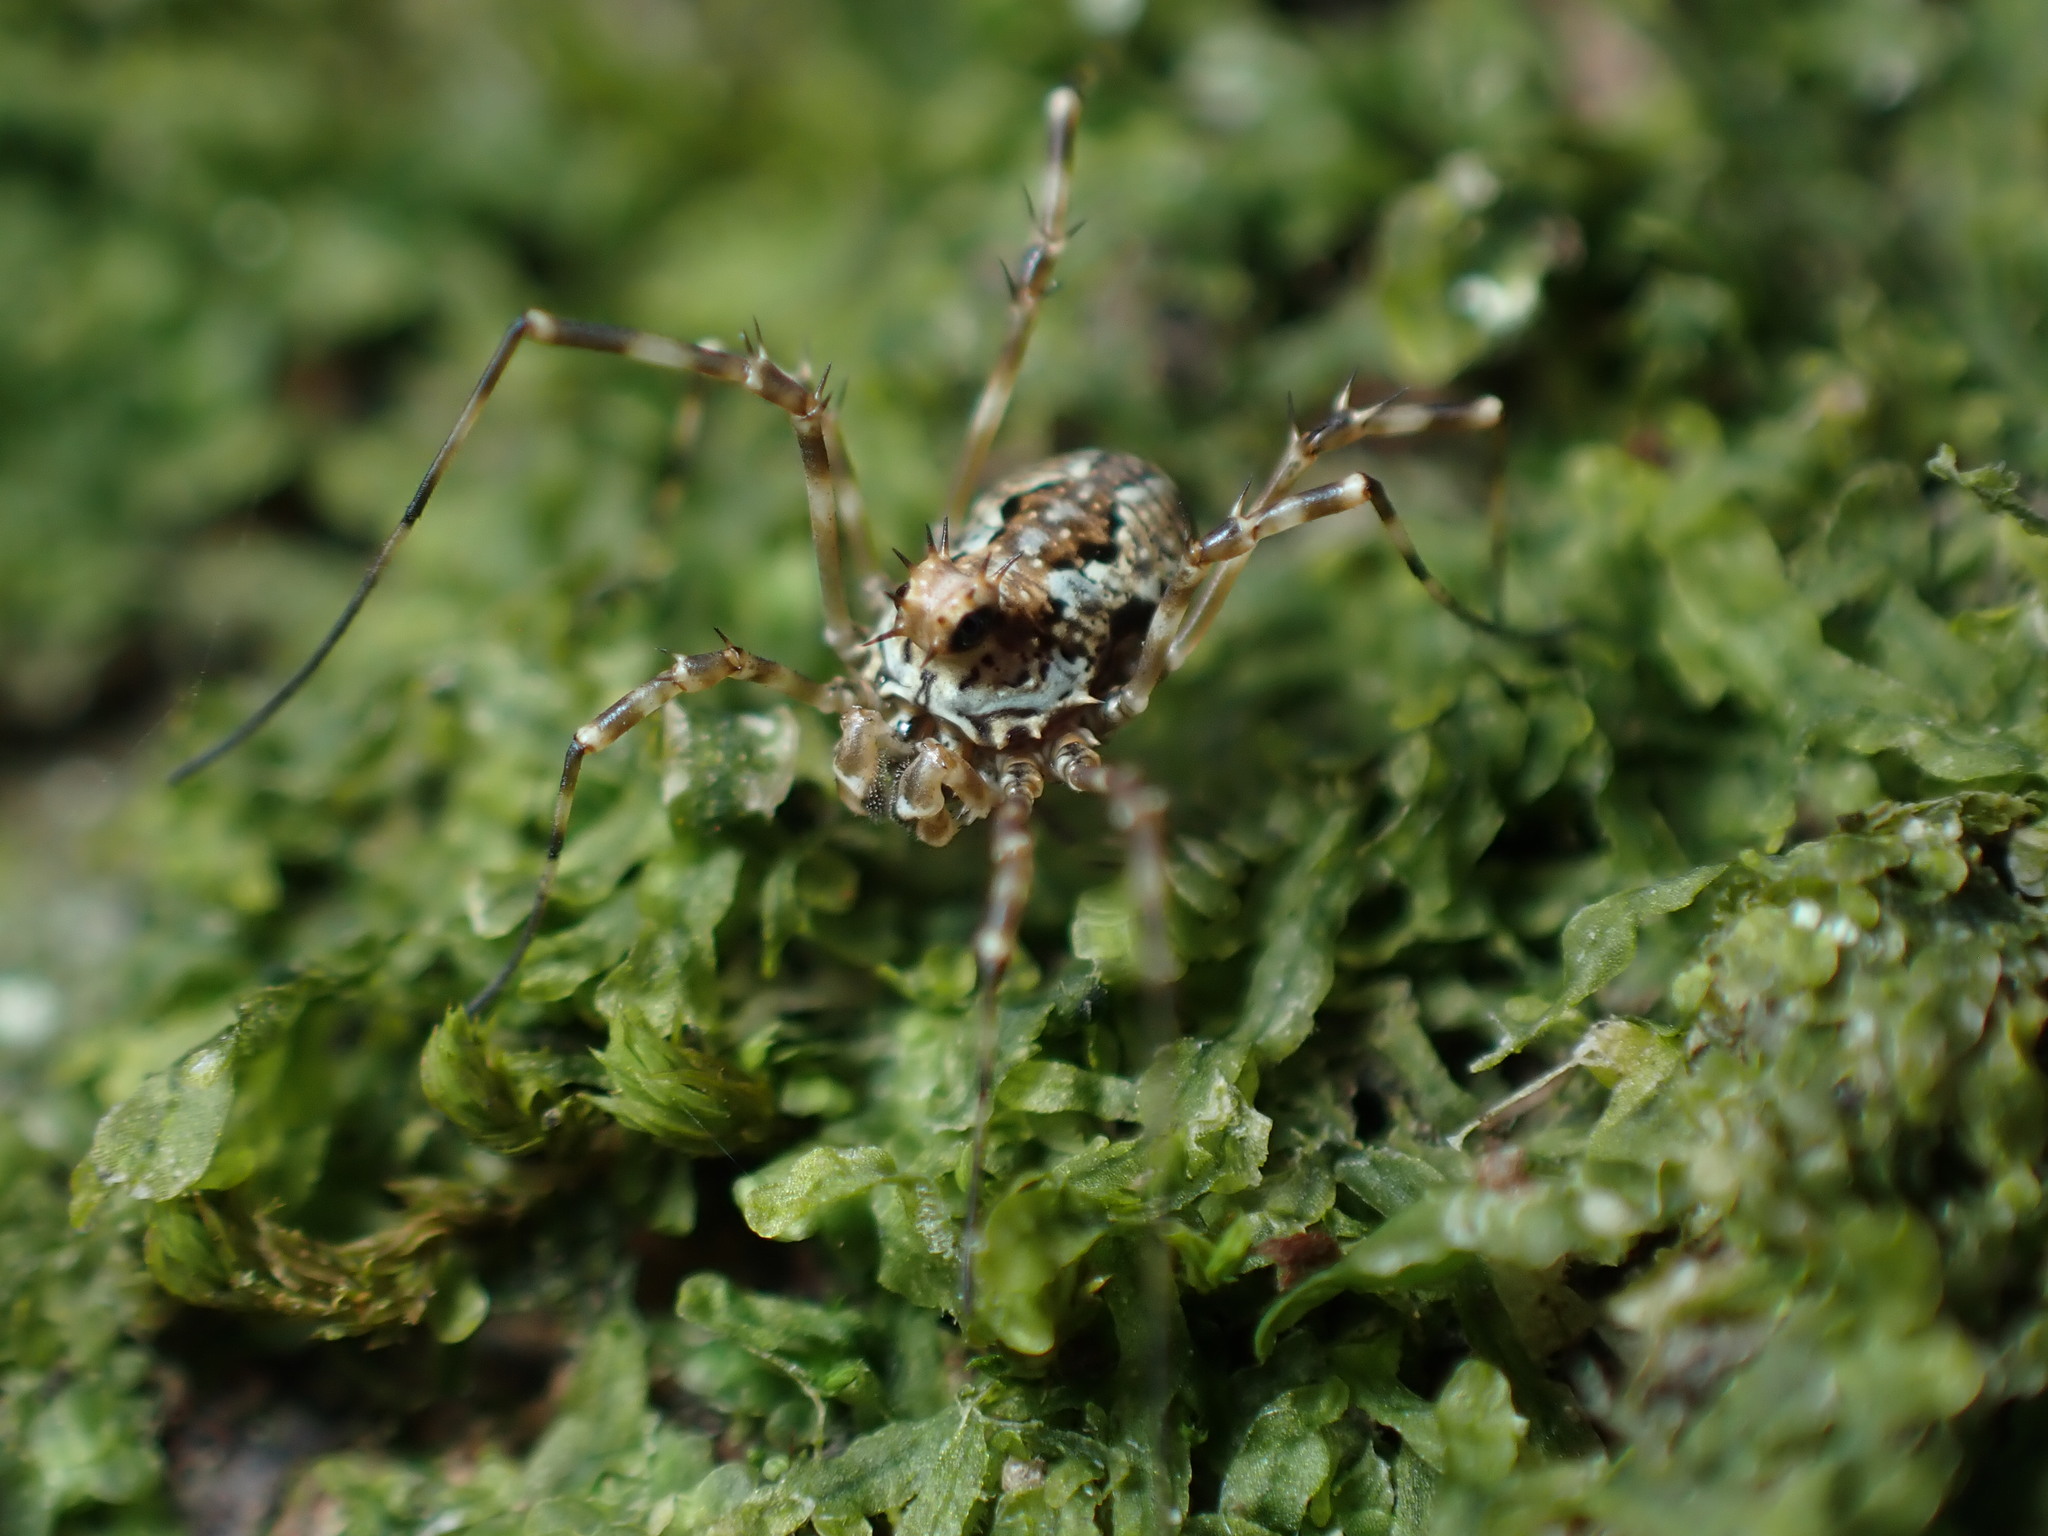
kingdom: Animalia
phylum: Arthropoda
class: Arachnida
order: Opiliones
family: Phalangiidae
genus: Megabunus
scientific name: Megabunus diadema
